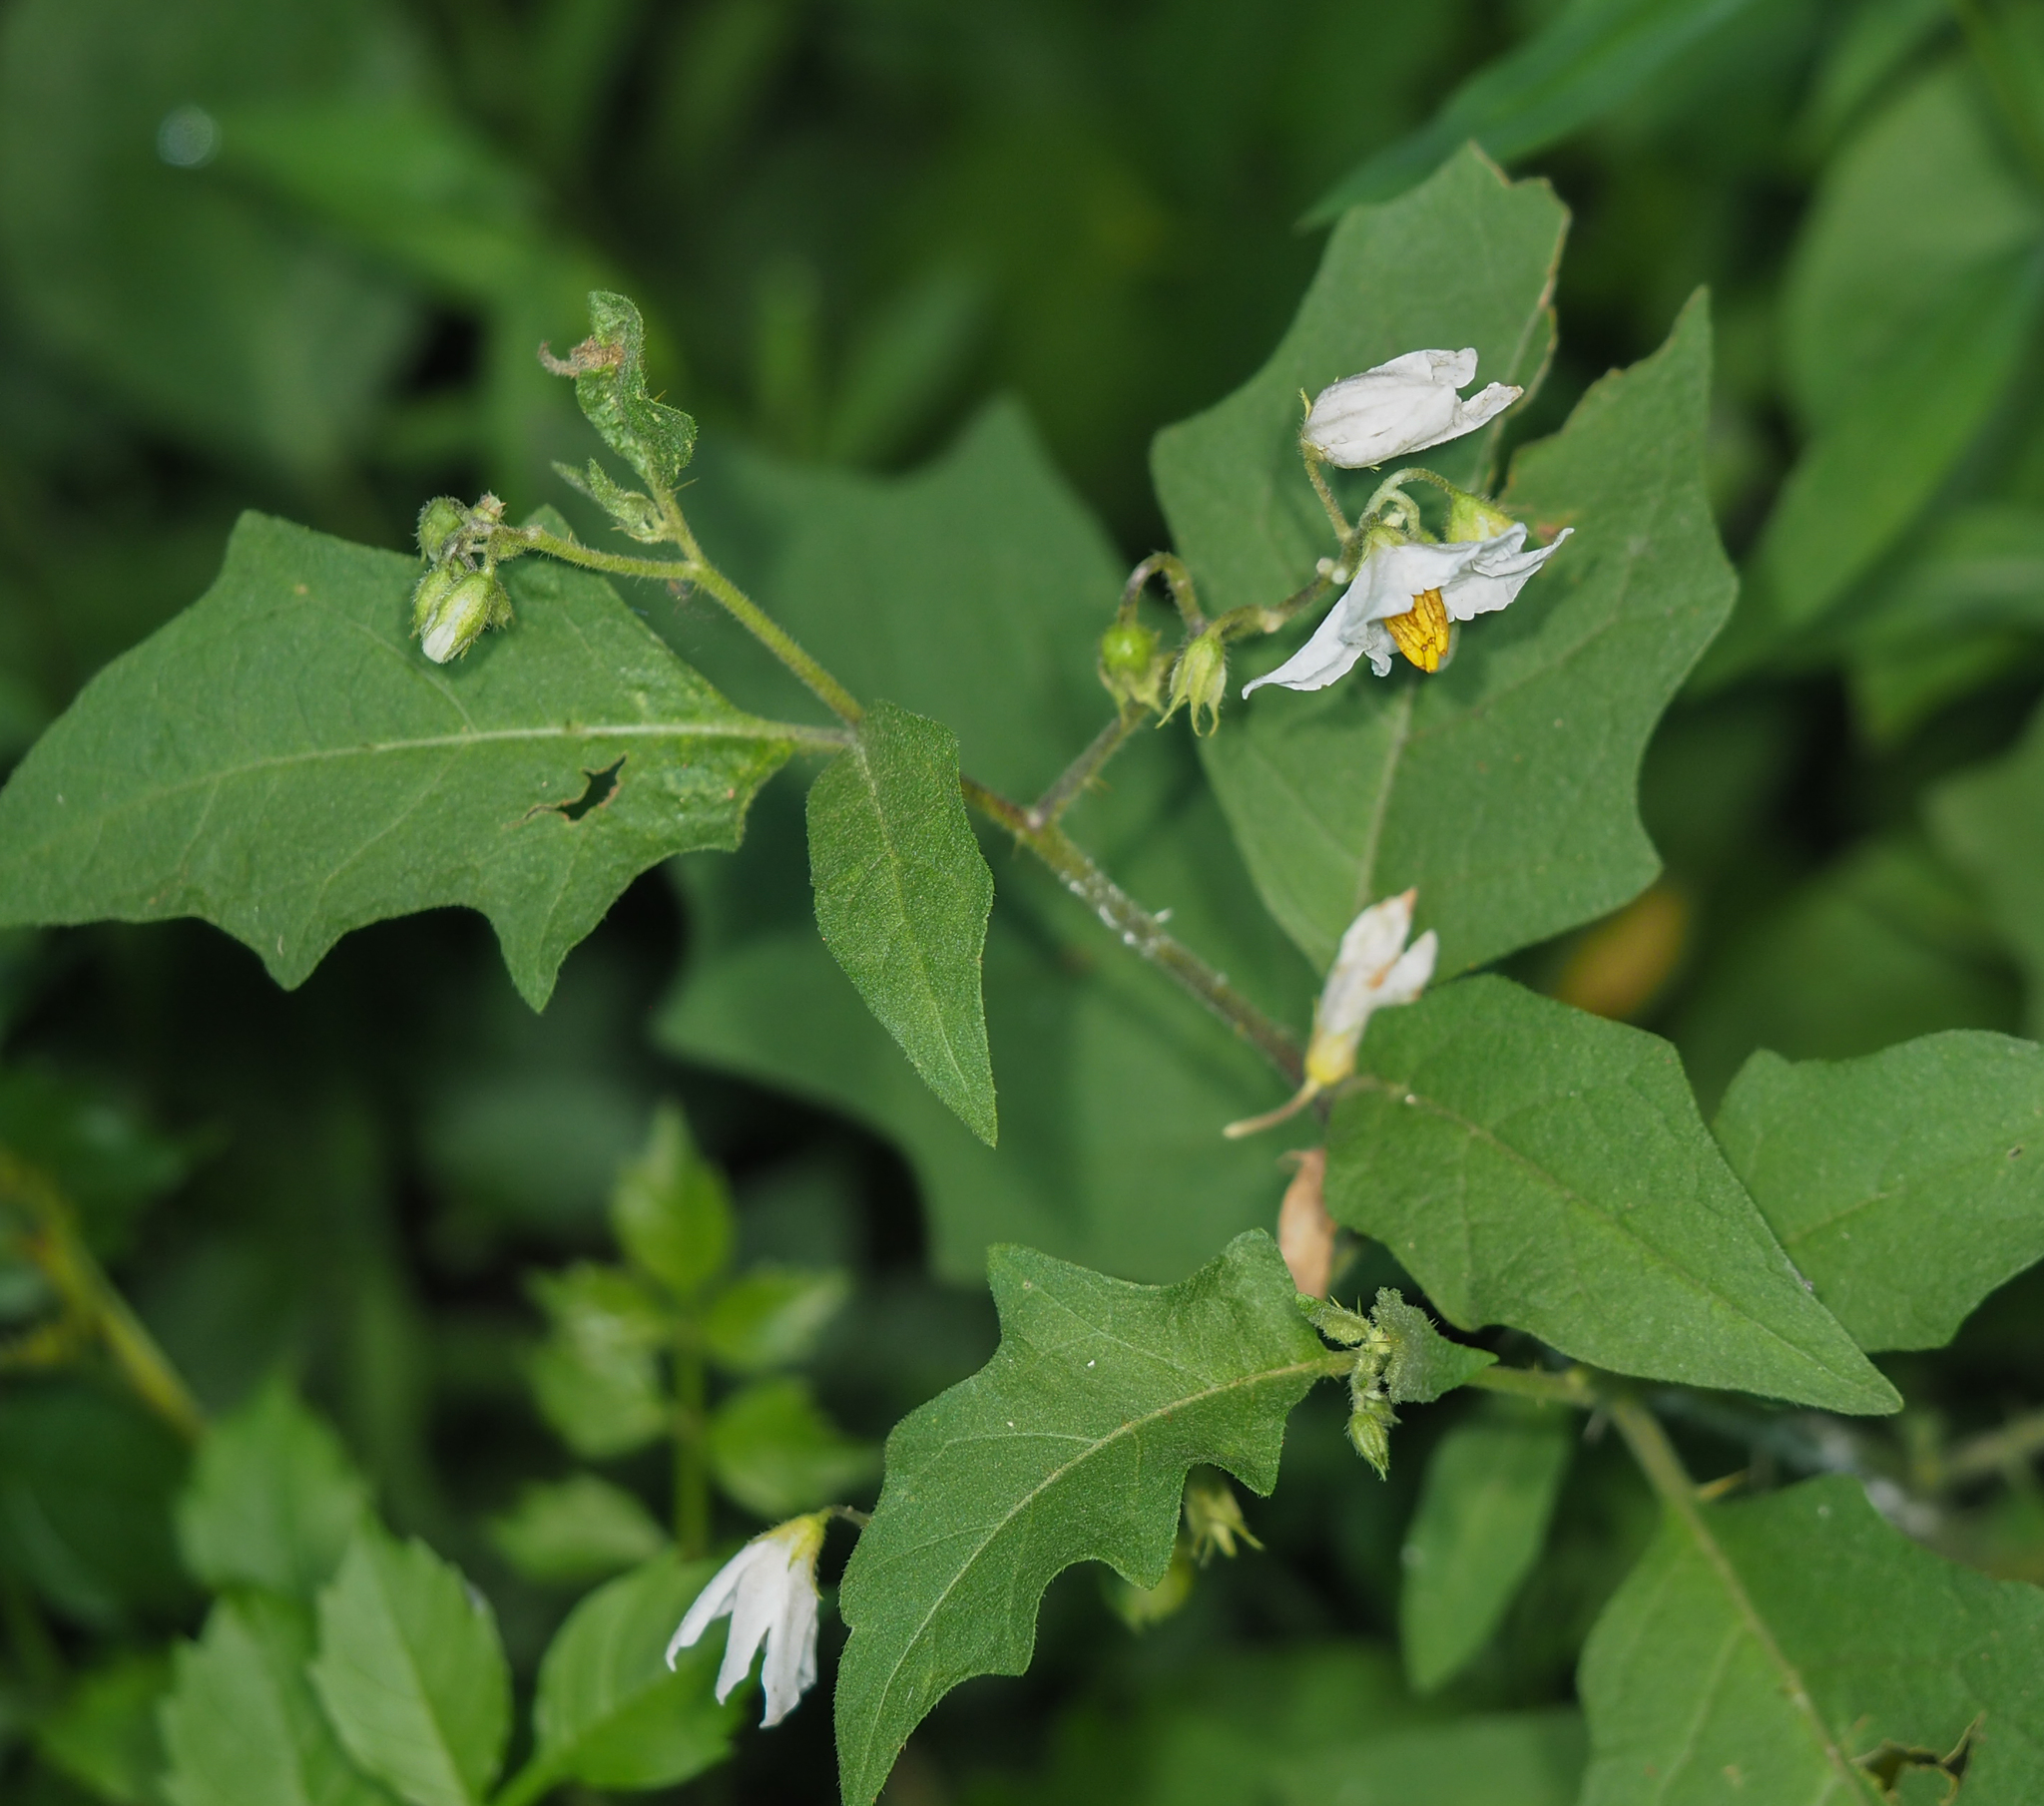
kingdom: Plantae
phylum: Tracheophyta
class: Magnoliopsida
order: Solanales
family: Solanaceae
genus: Solanum
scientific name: Solanum carolinense
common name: Horse-nettle
